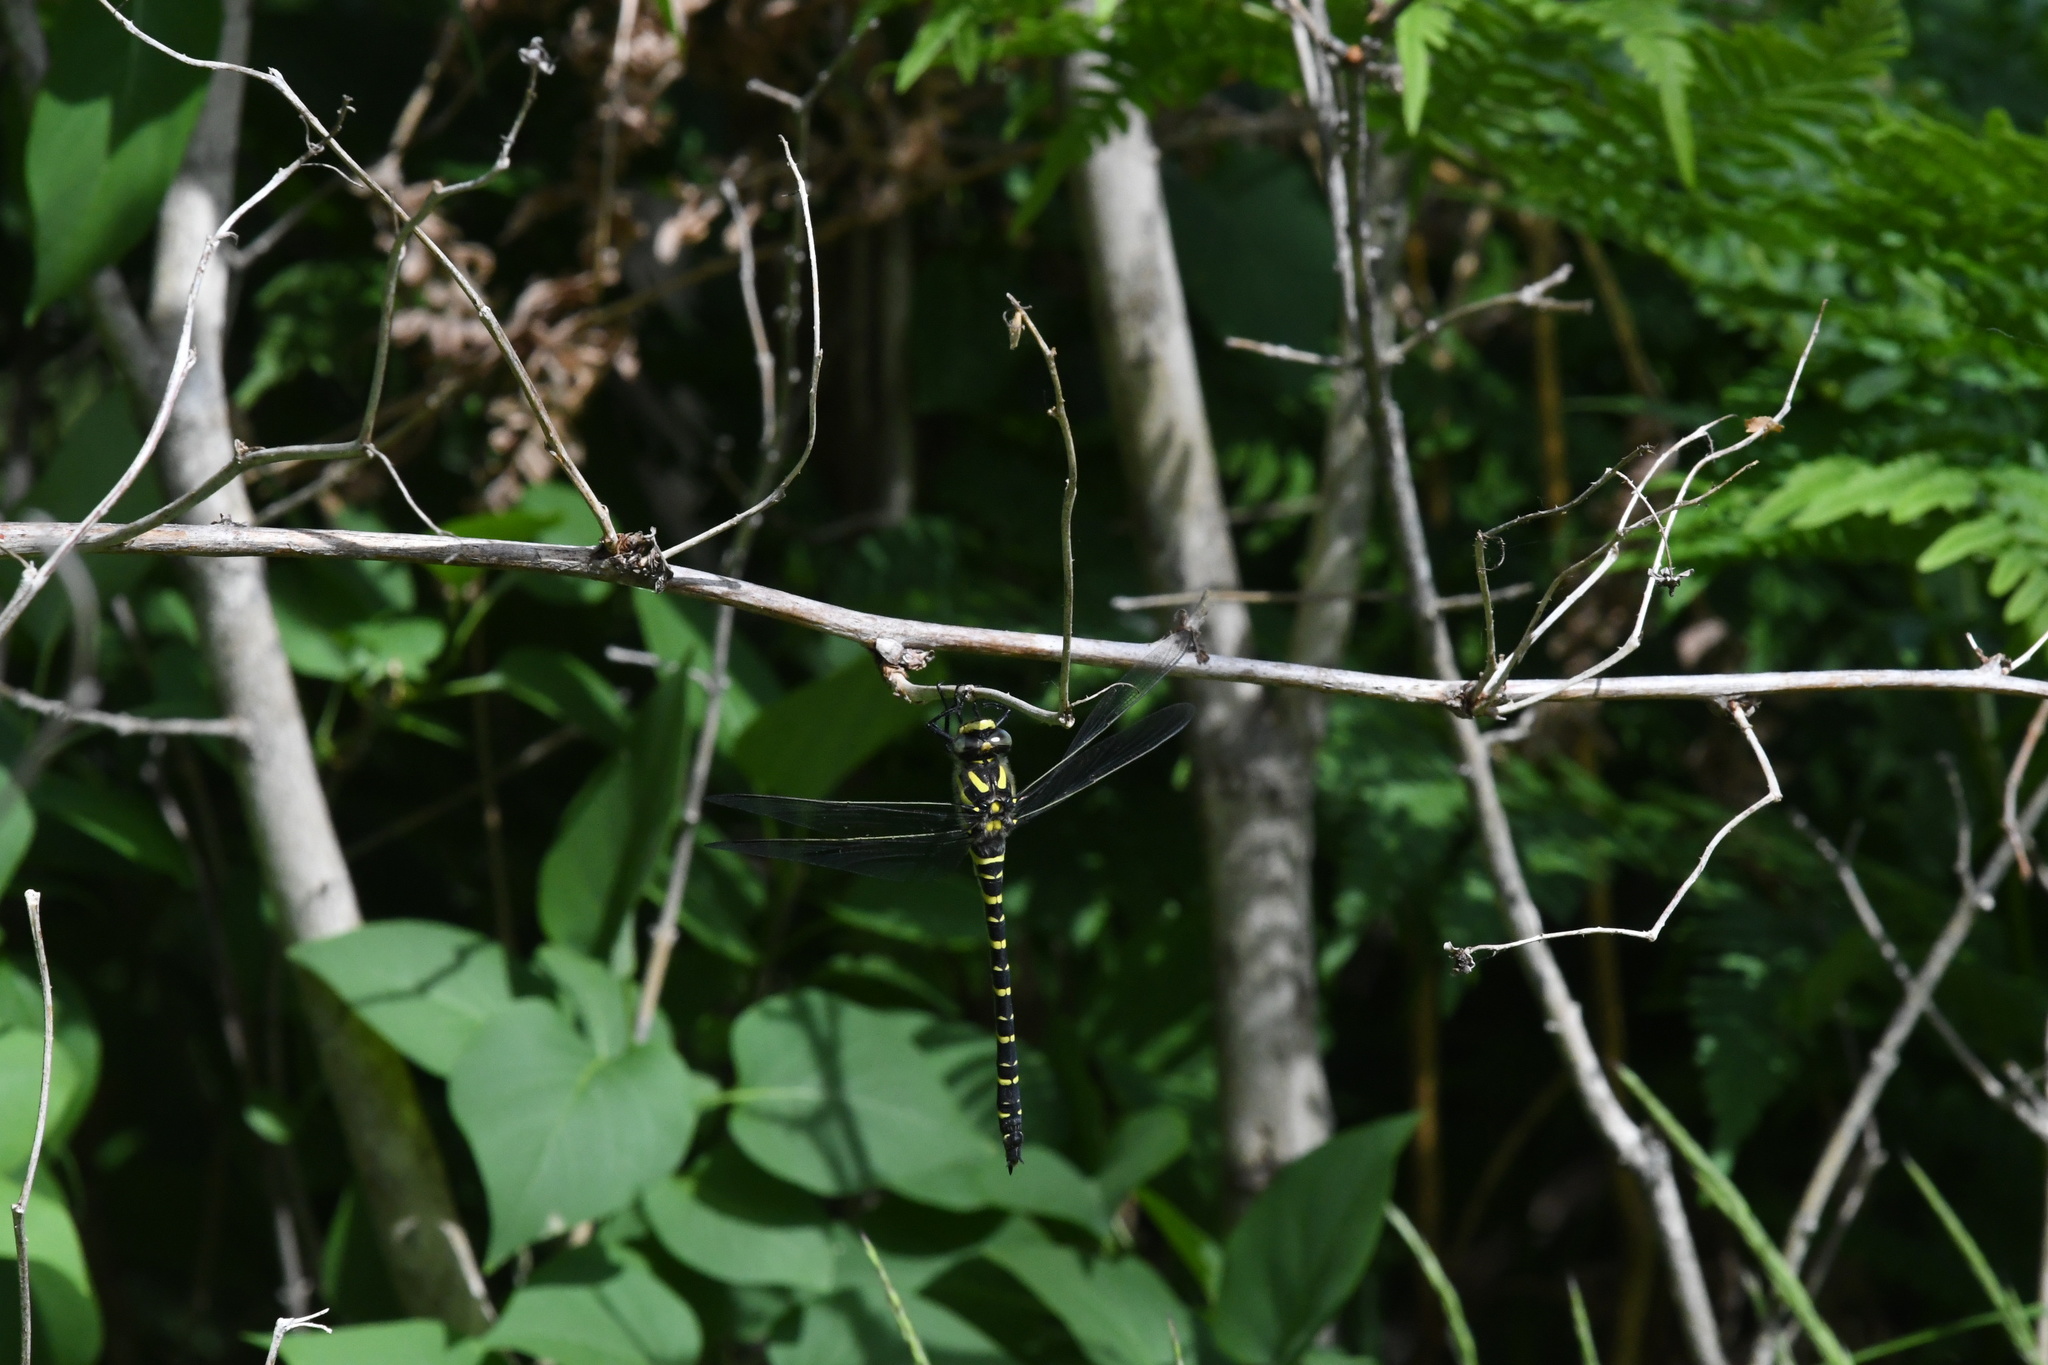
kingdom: Animalia
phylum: Arthropoda
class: Insecta
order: Odonata
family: Cordulegastridae
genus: Cordulegaster
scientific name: Cordulegaster boltonii
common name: Golden-ringed dragonfly
